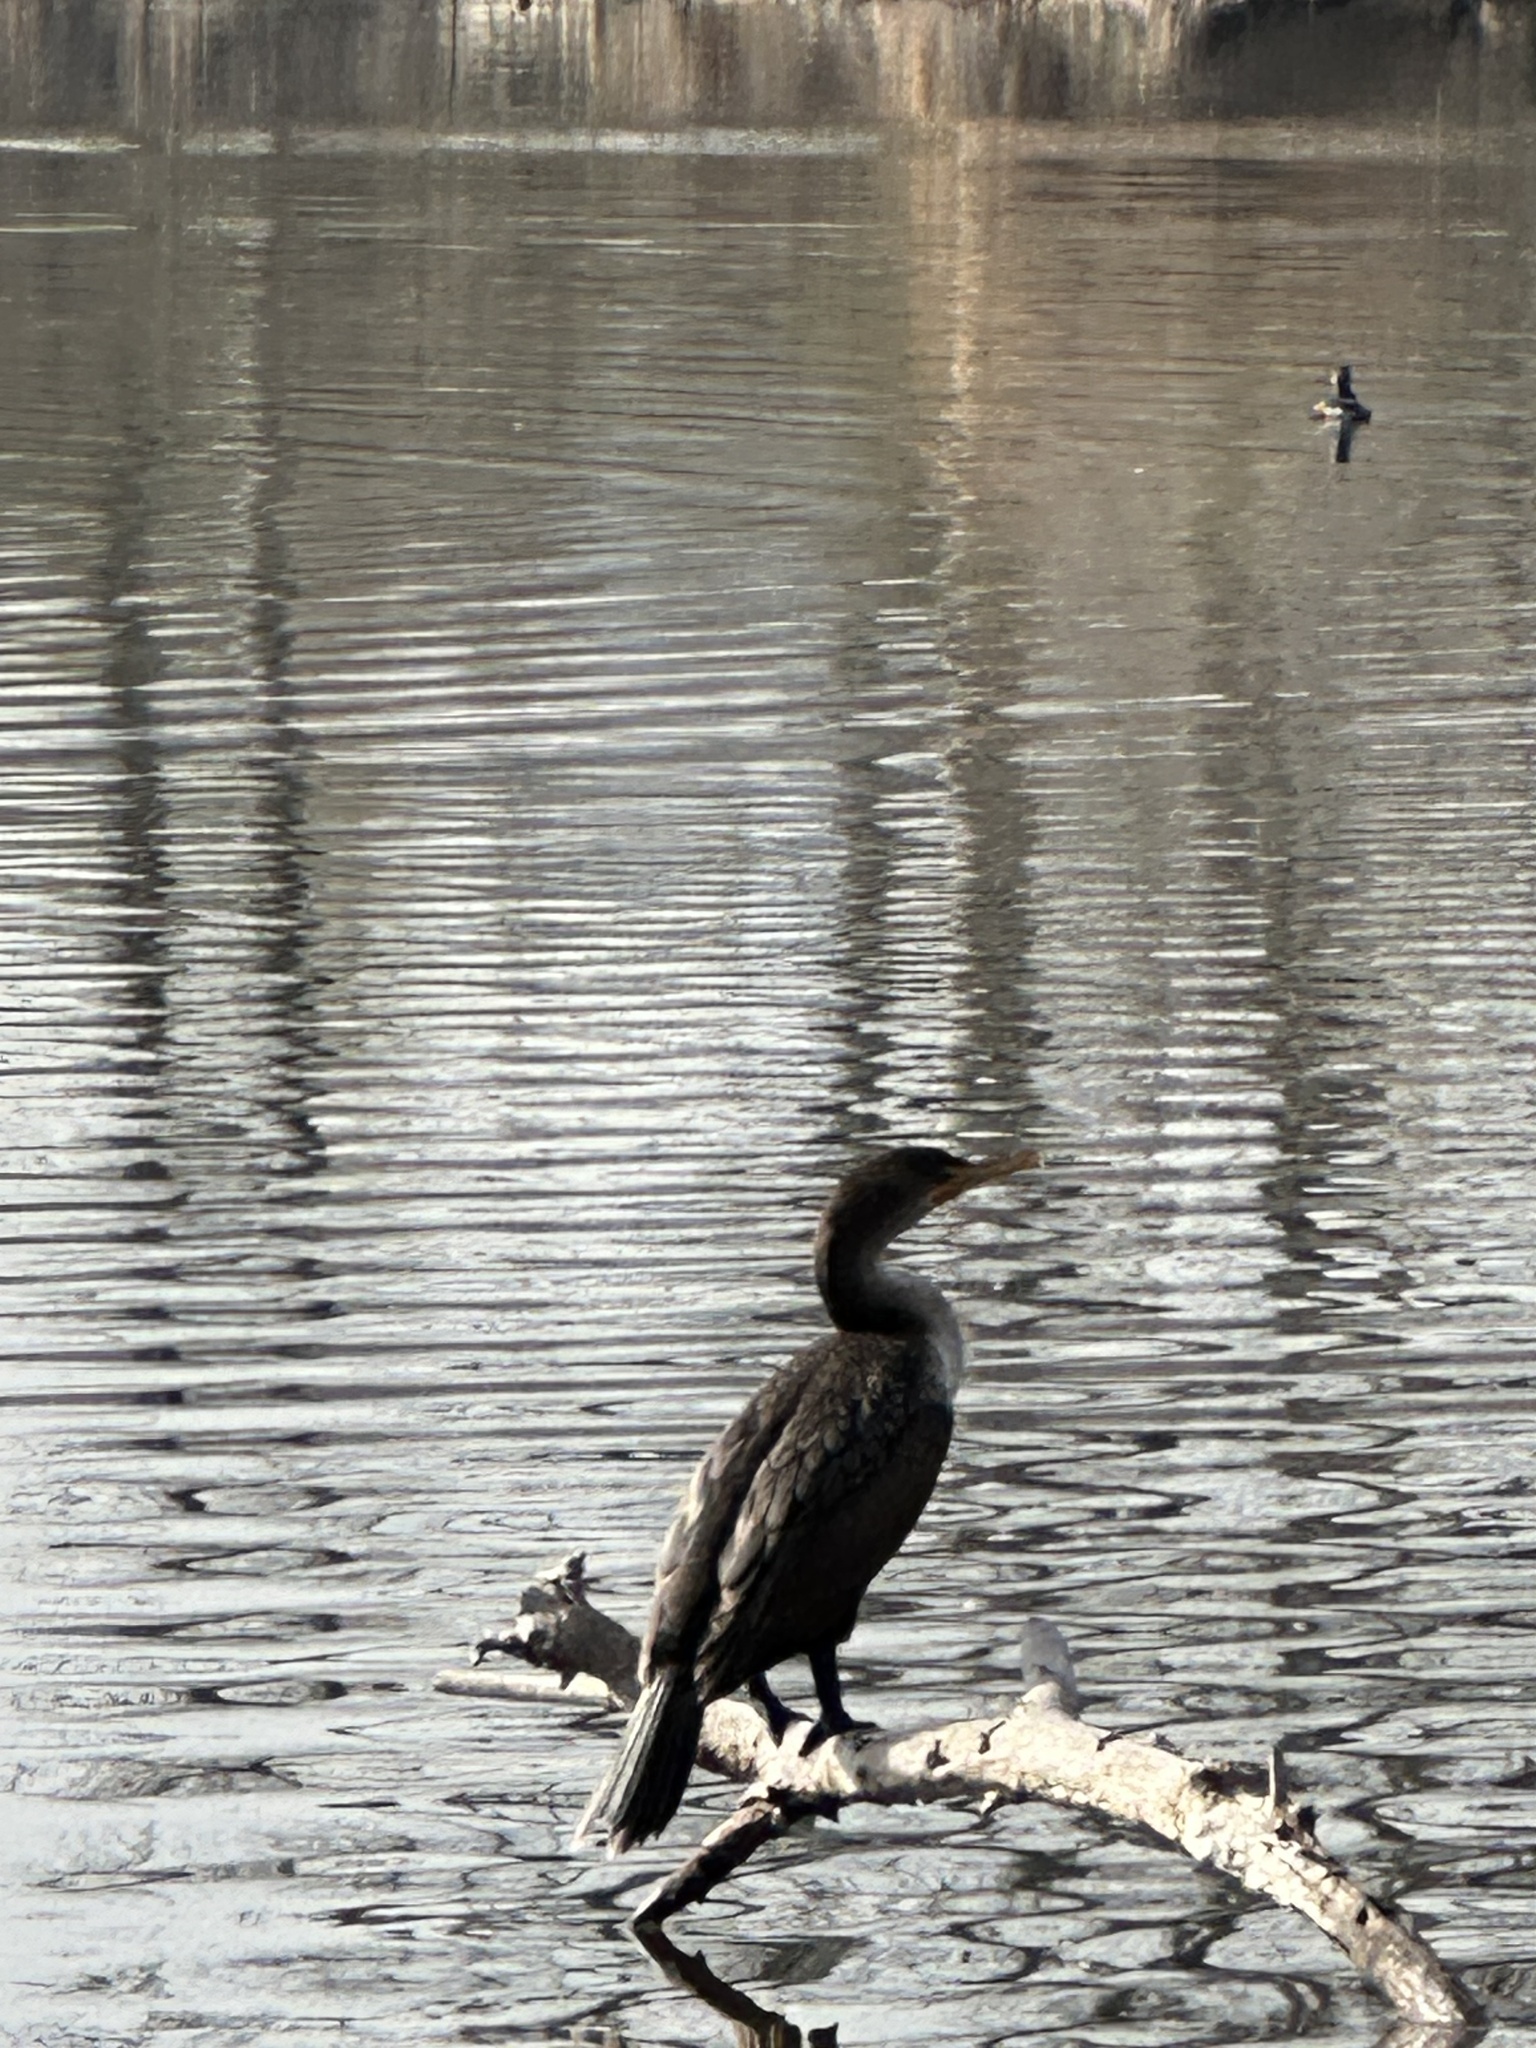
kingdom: Animalia
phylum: Chordata
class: Aves
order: Suliformes
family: Phalacrocoracidae
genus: Phalacrocorax
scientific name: Phalacrocorax auritus
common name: Double-crested cormorant
